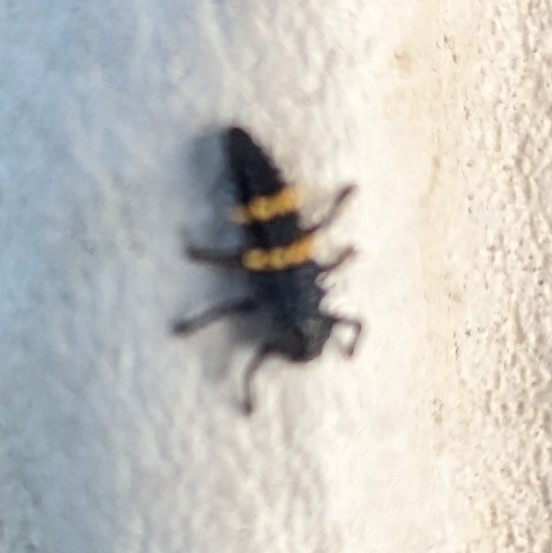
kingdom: Animalia
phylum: Arthropoda
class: Insecta
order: Coleoptera
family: Coccinellidae
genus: Harmonia
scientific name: Harmonia conformis
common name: Common spotted ladybird beetle
